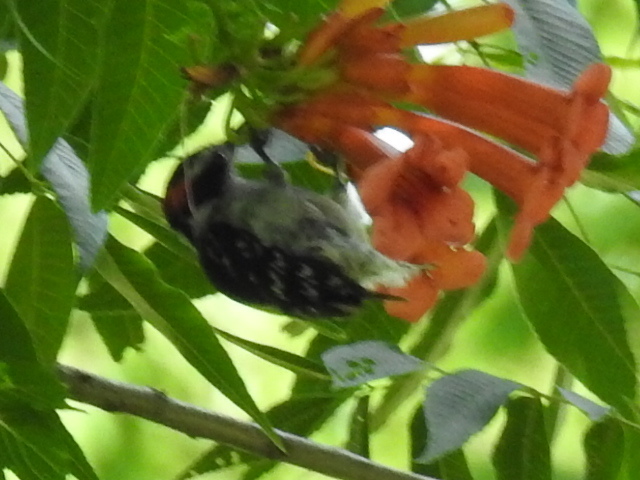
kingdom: Animalia
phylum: Chordata
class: Aves
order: Piciformes
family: Picidae
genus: Dryobates
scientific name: Dryobates pubescens
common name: Downy woodpecker
